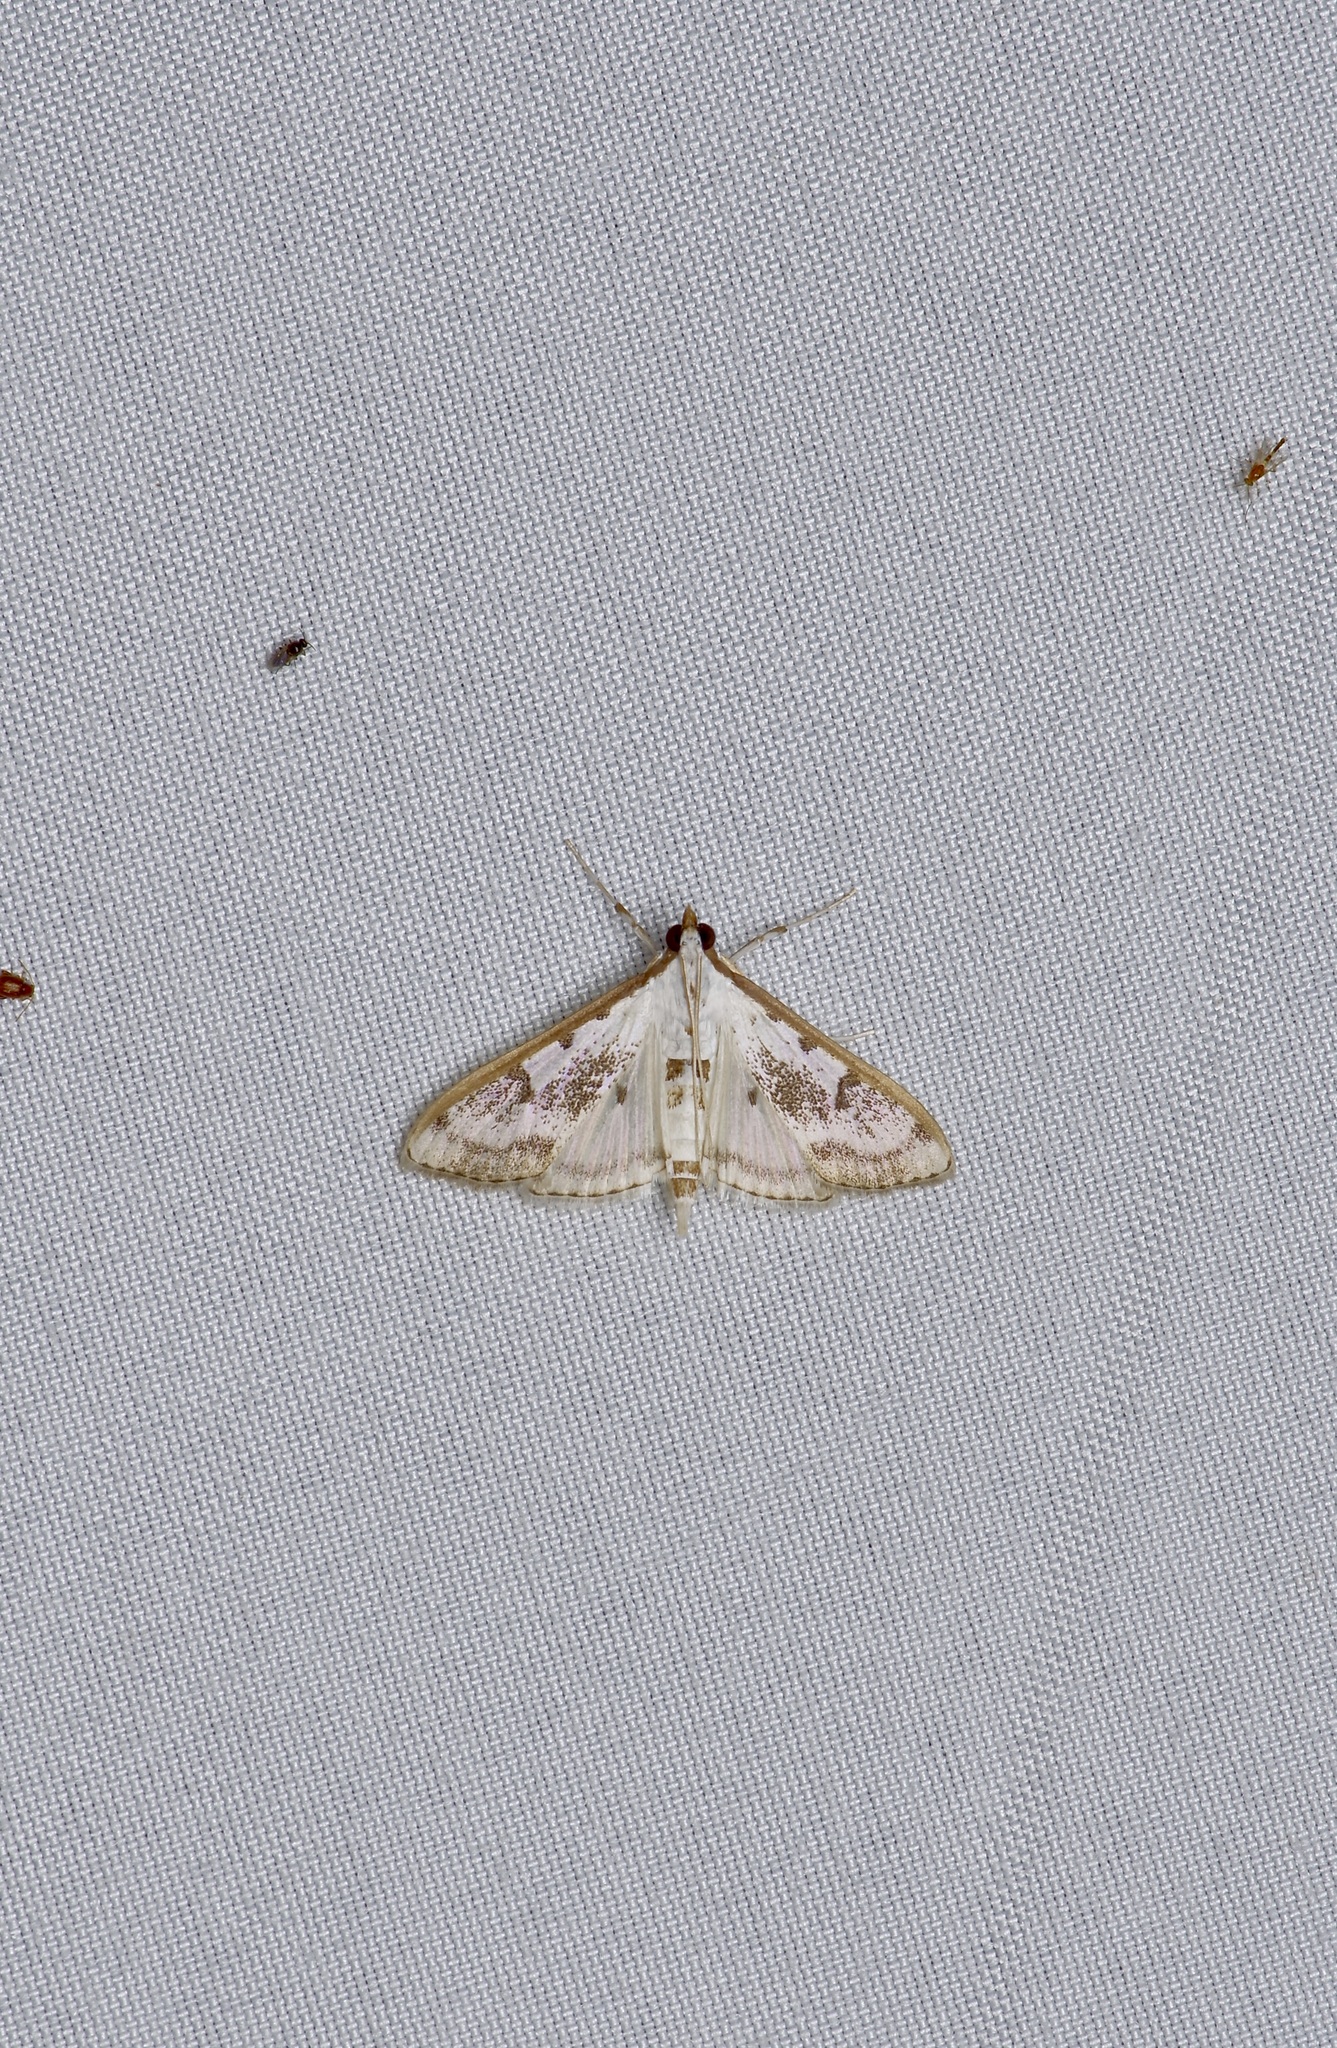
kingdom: Animalia
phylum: Arthropoda
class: Insecta
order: Lepidoptera
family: Crambidae
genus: Palpita
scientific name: Palpita gracilalis
